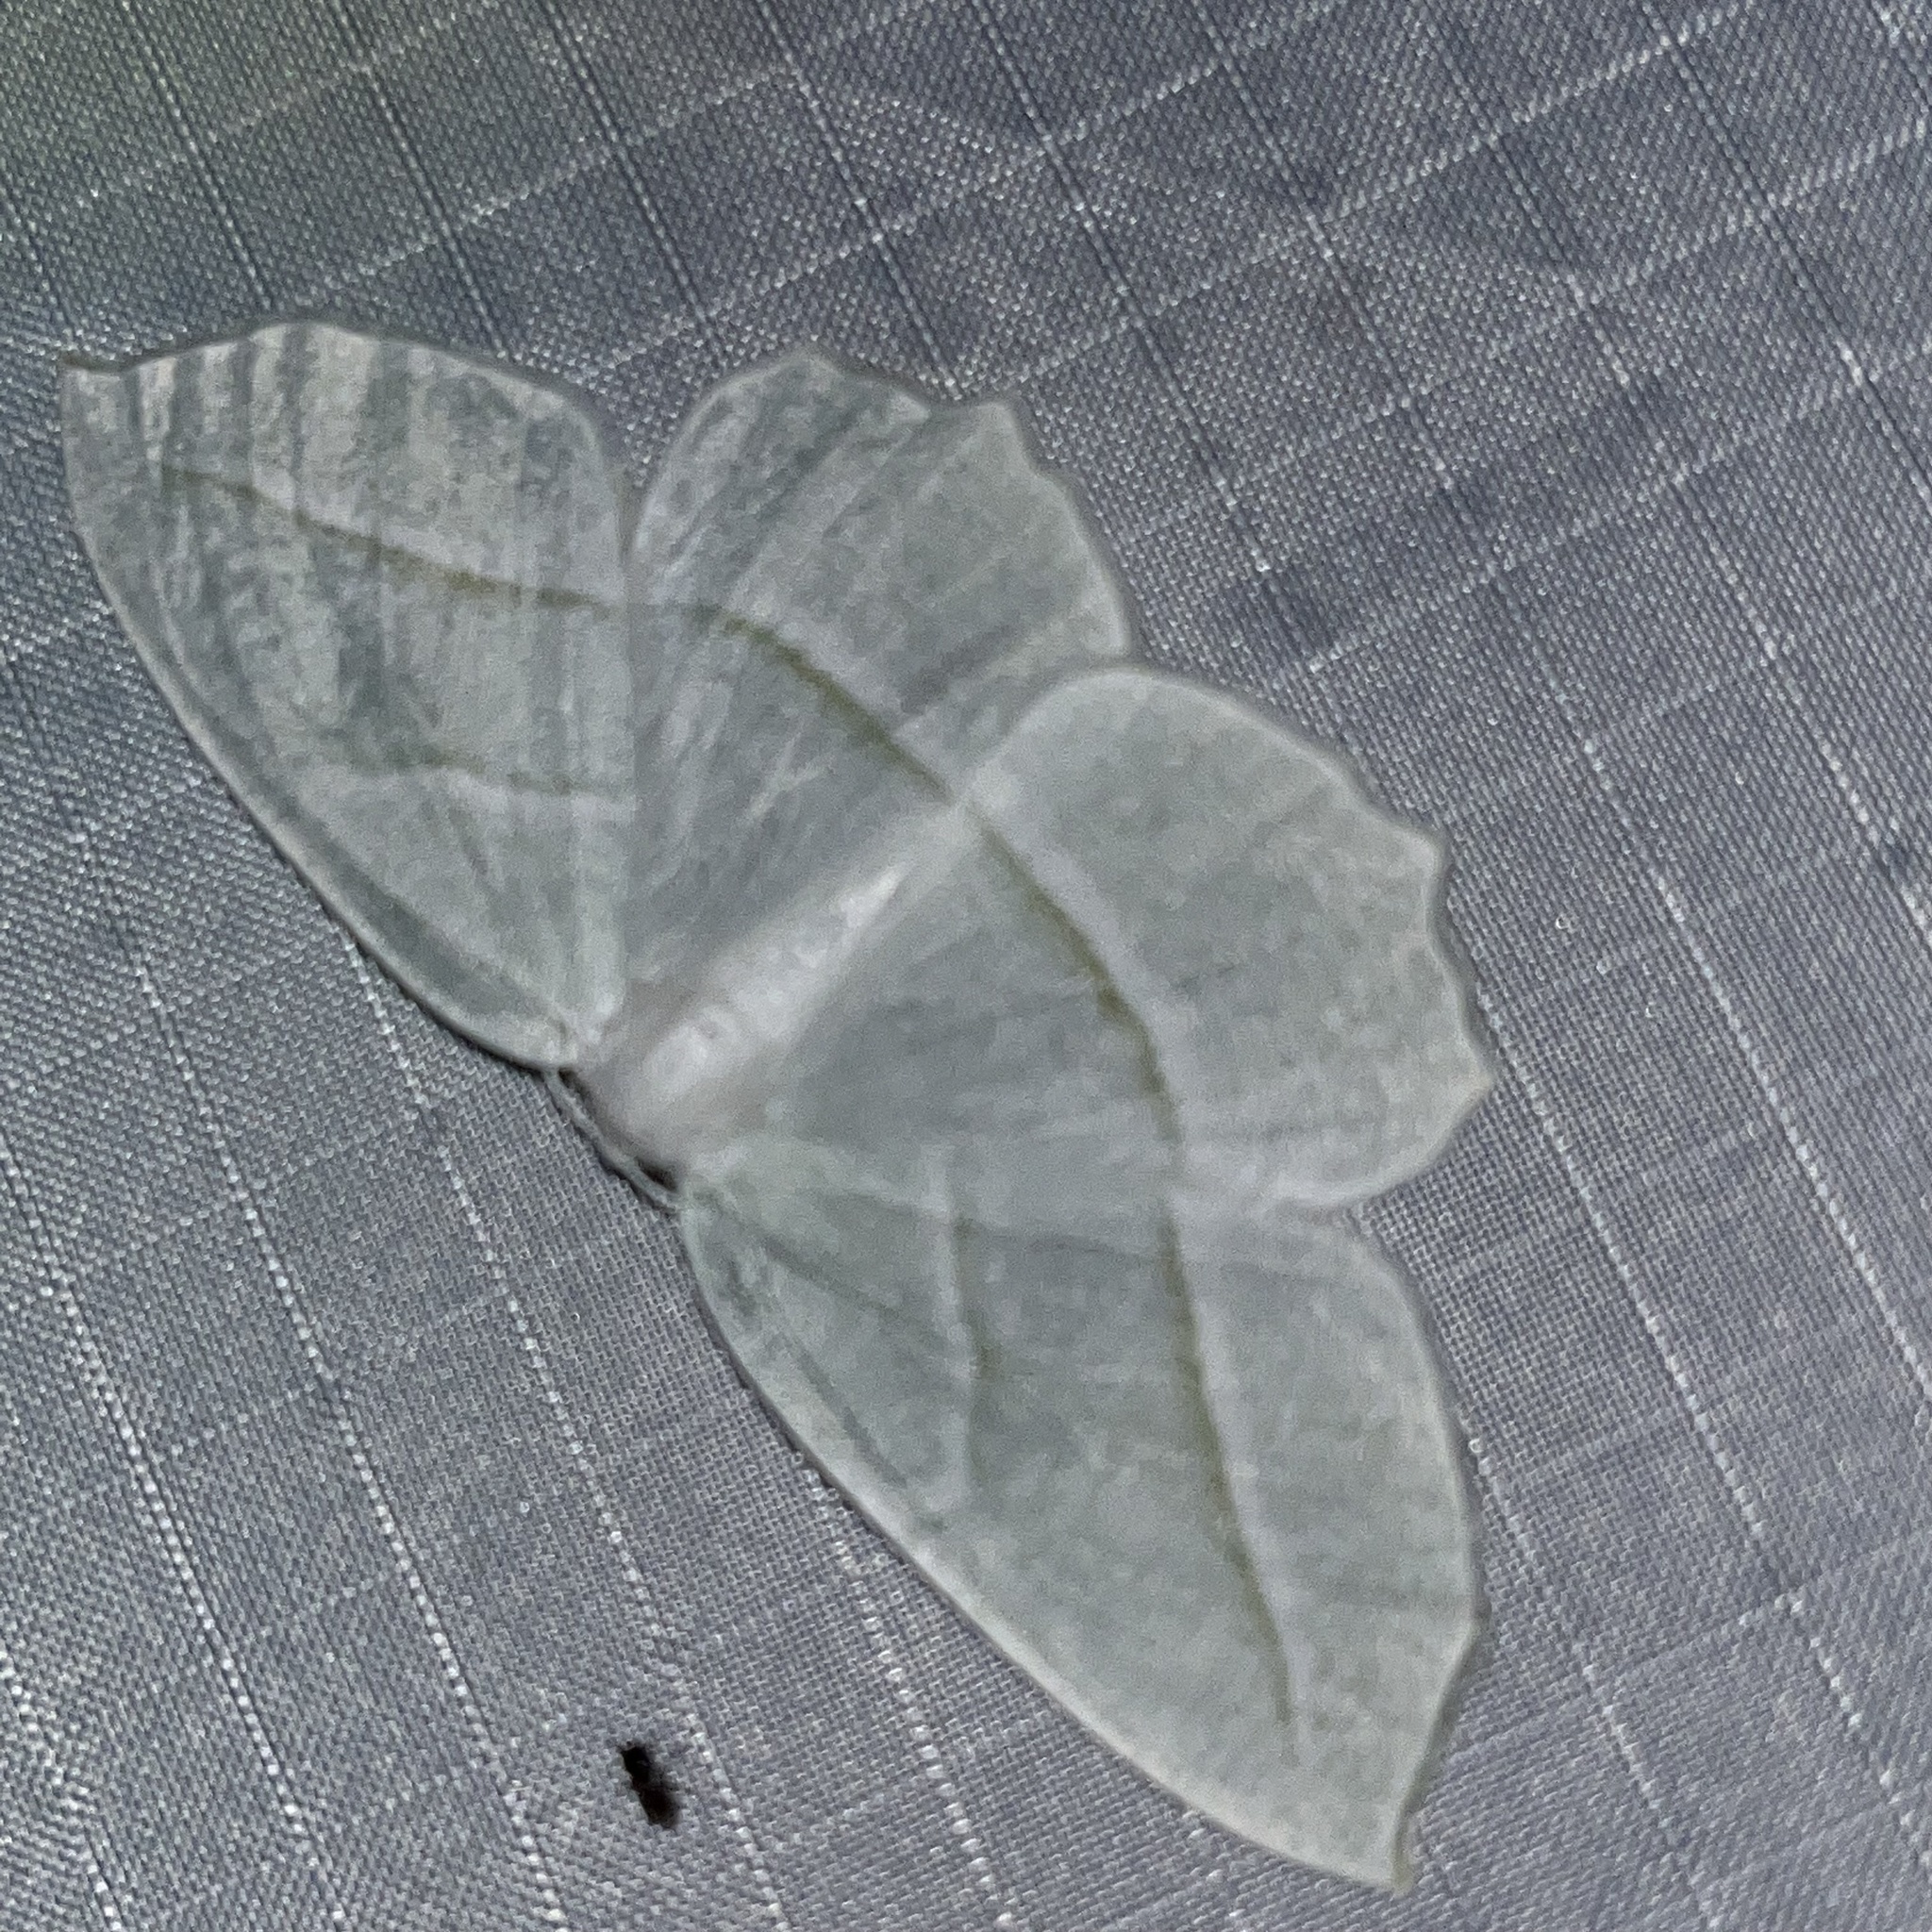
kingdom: Animalia
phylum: Arthropoda
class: Insecta
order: Lepidoptera
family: Geometridae
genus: Campaea
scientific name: Campaea perlata
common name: Fringed looper
